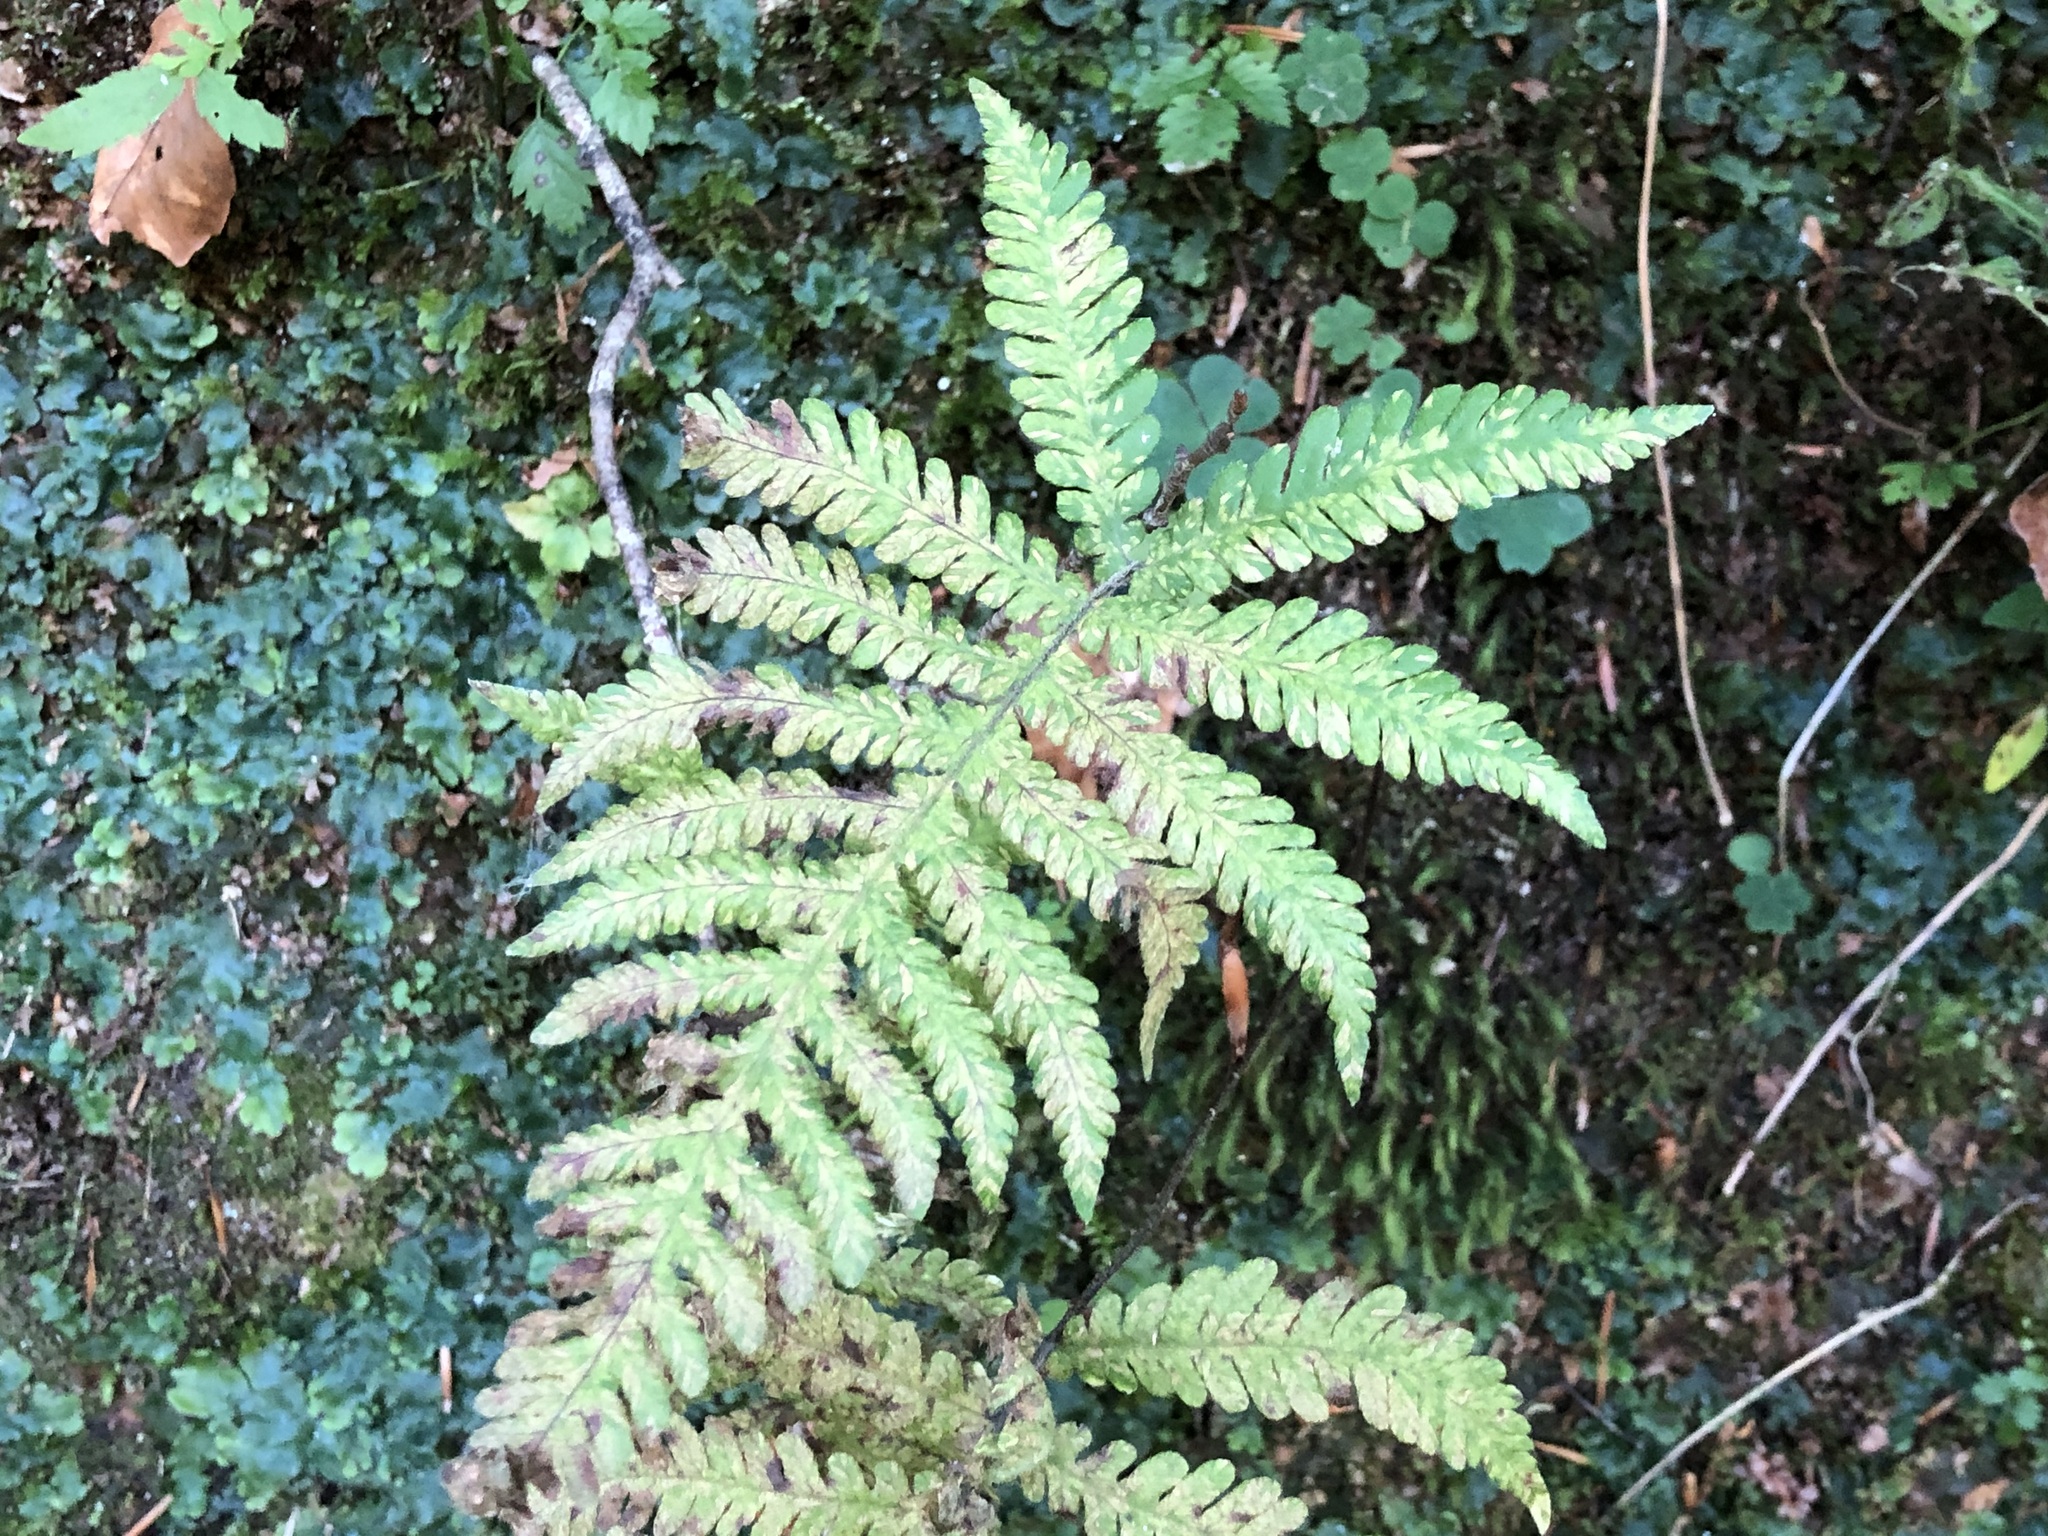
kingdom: Plantae
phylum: Tracheophyta
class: Polypodiopsida
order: Polypodiales
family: Thelypteridaceae
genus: Phegopteris
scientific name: Phegopteris connectilis
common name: Beech fern
